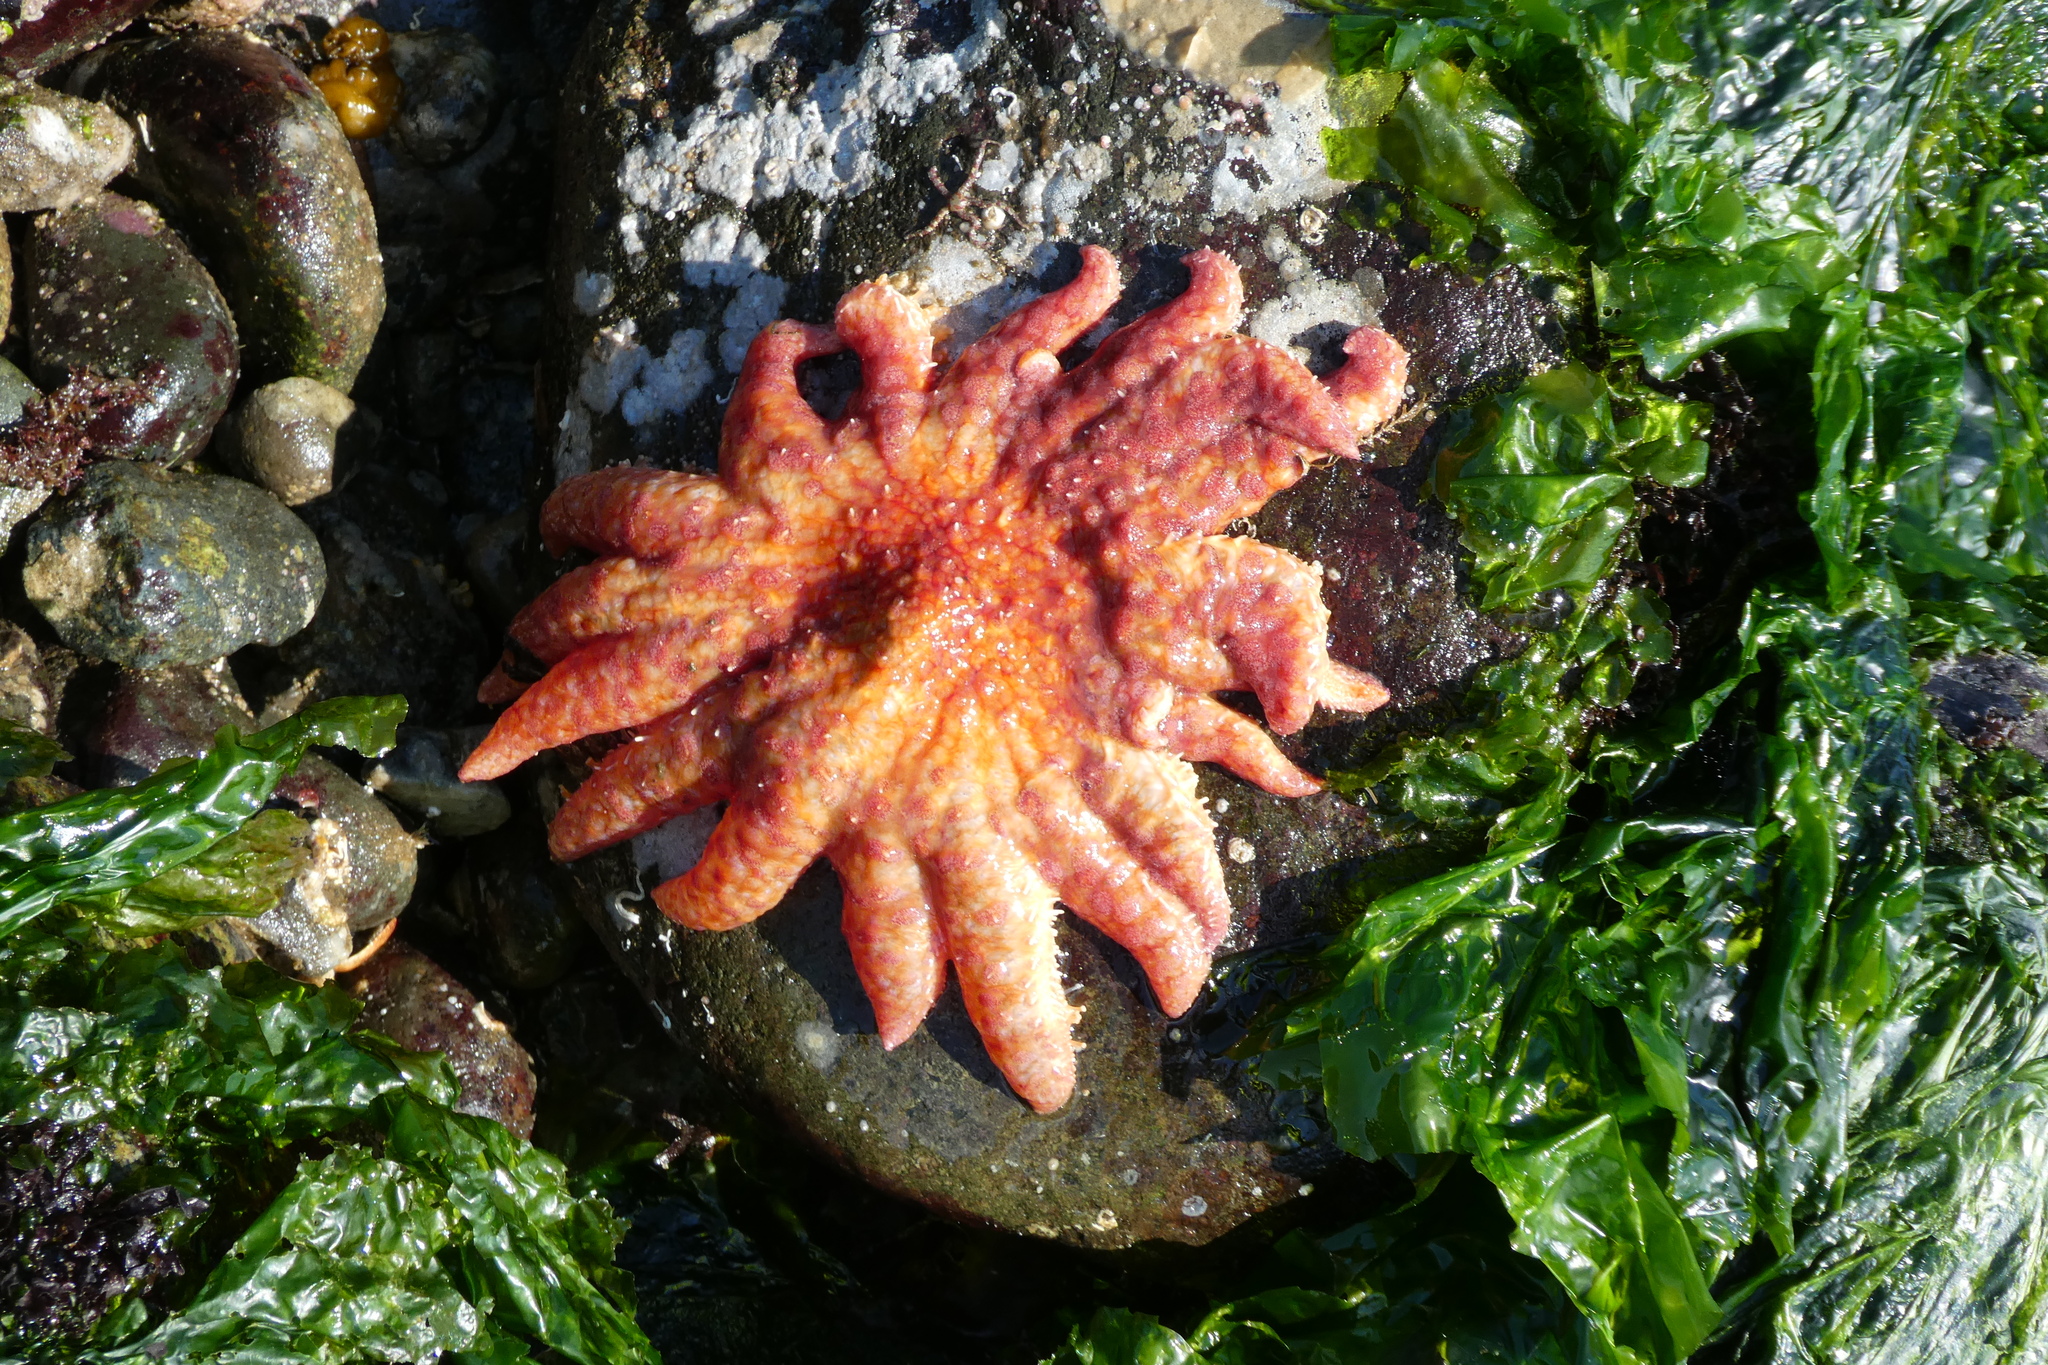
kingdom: Animalia
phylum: Echinodermata
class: Asteroidea
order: Forcipulatida
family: Asteriidae
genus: Pycnopodia
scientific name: Pycnopodia helianthoides
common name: Rag mop
